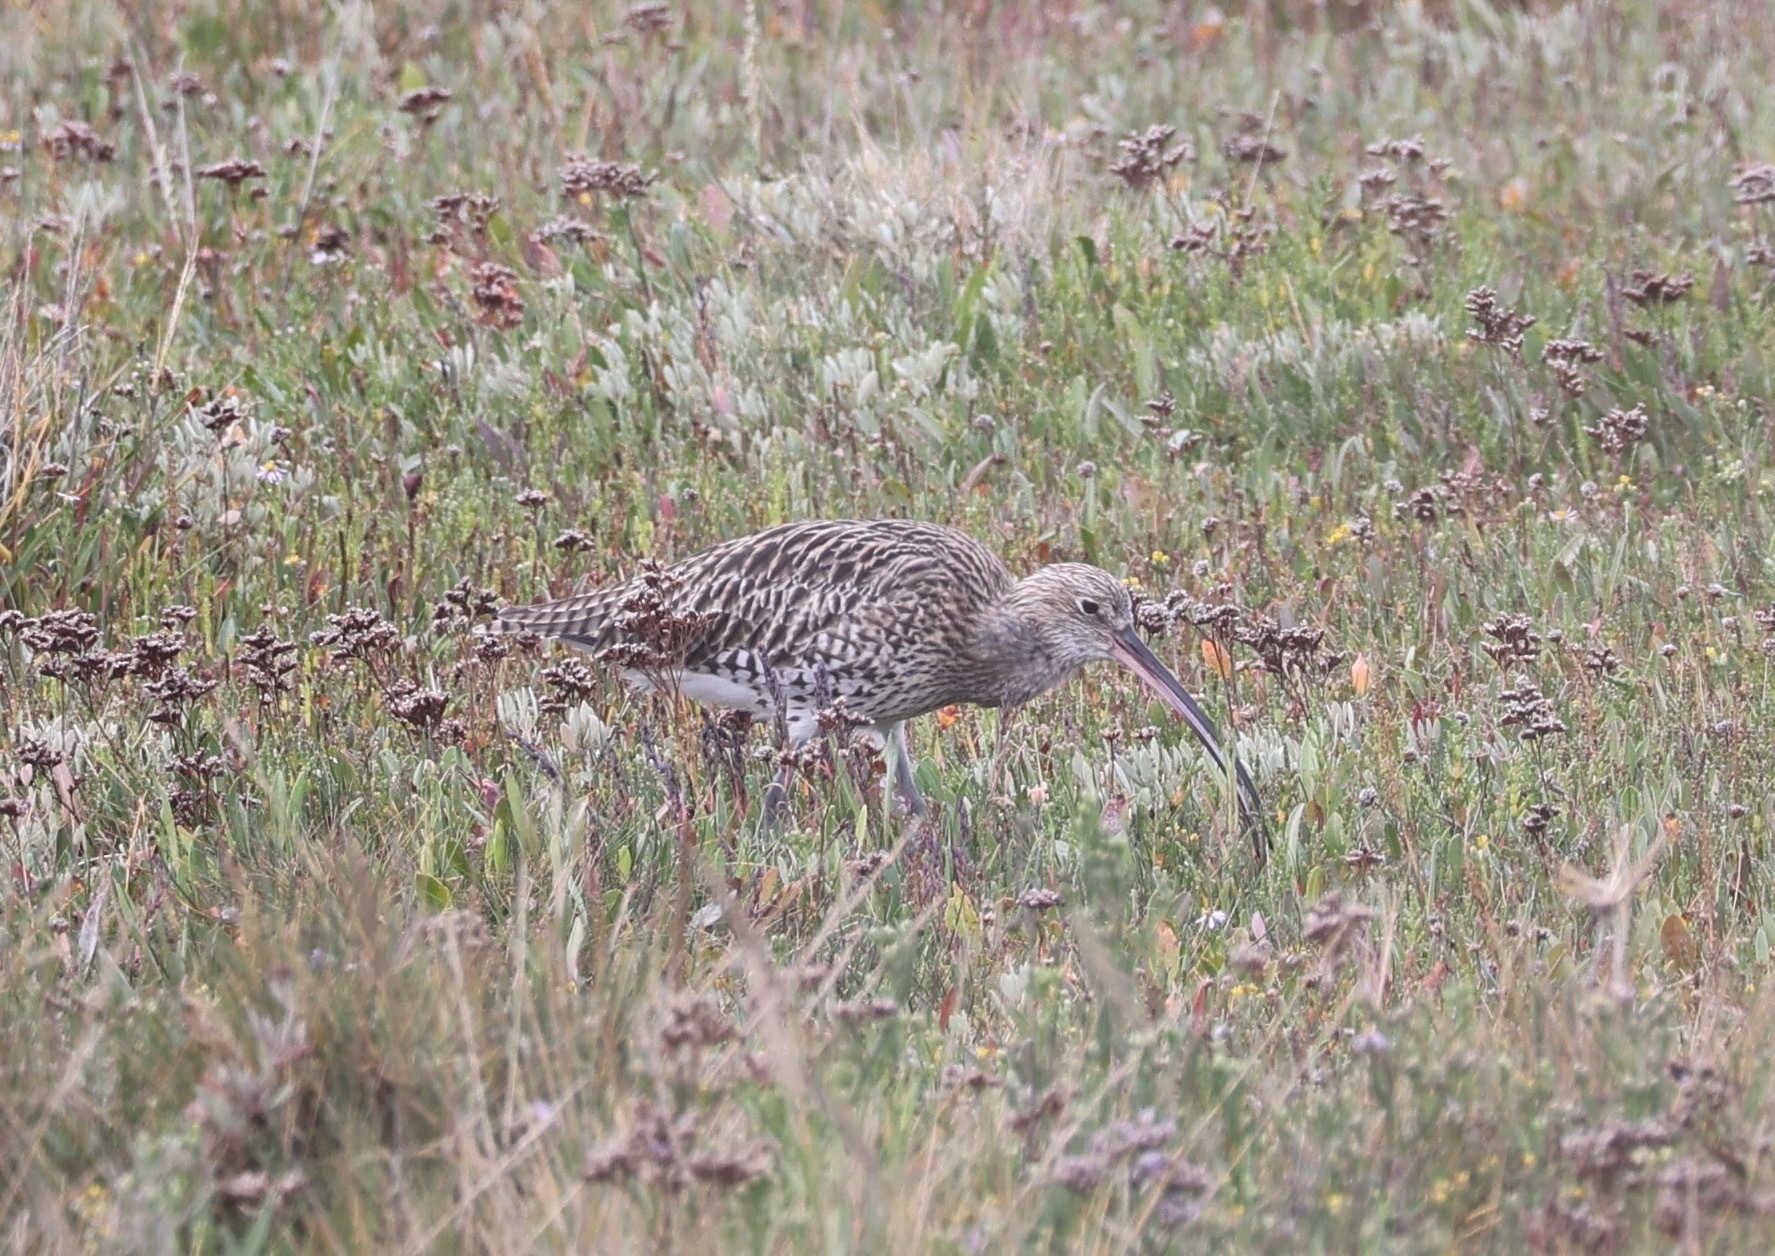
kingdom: Animalia
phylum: Chordata
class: Aves
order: Charadriiformes
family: Scolopacidae
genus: Numenius
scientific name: Numenius arquata
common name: Eurasian curlew
